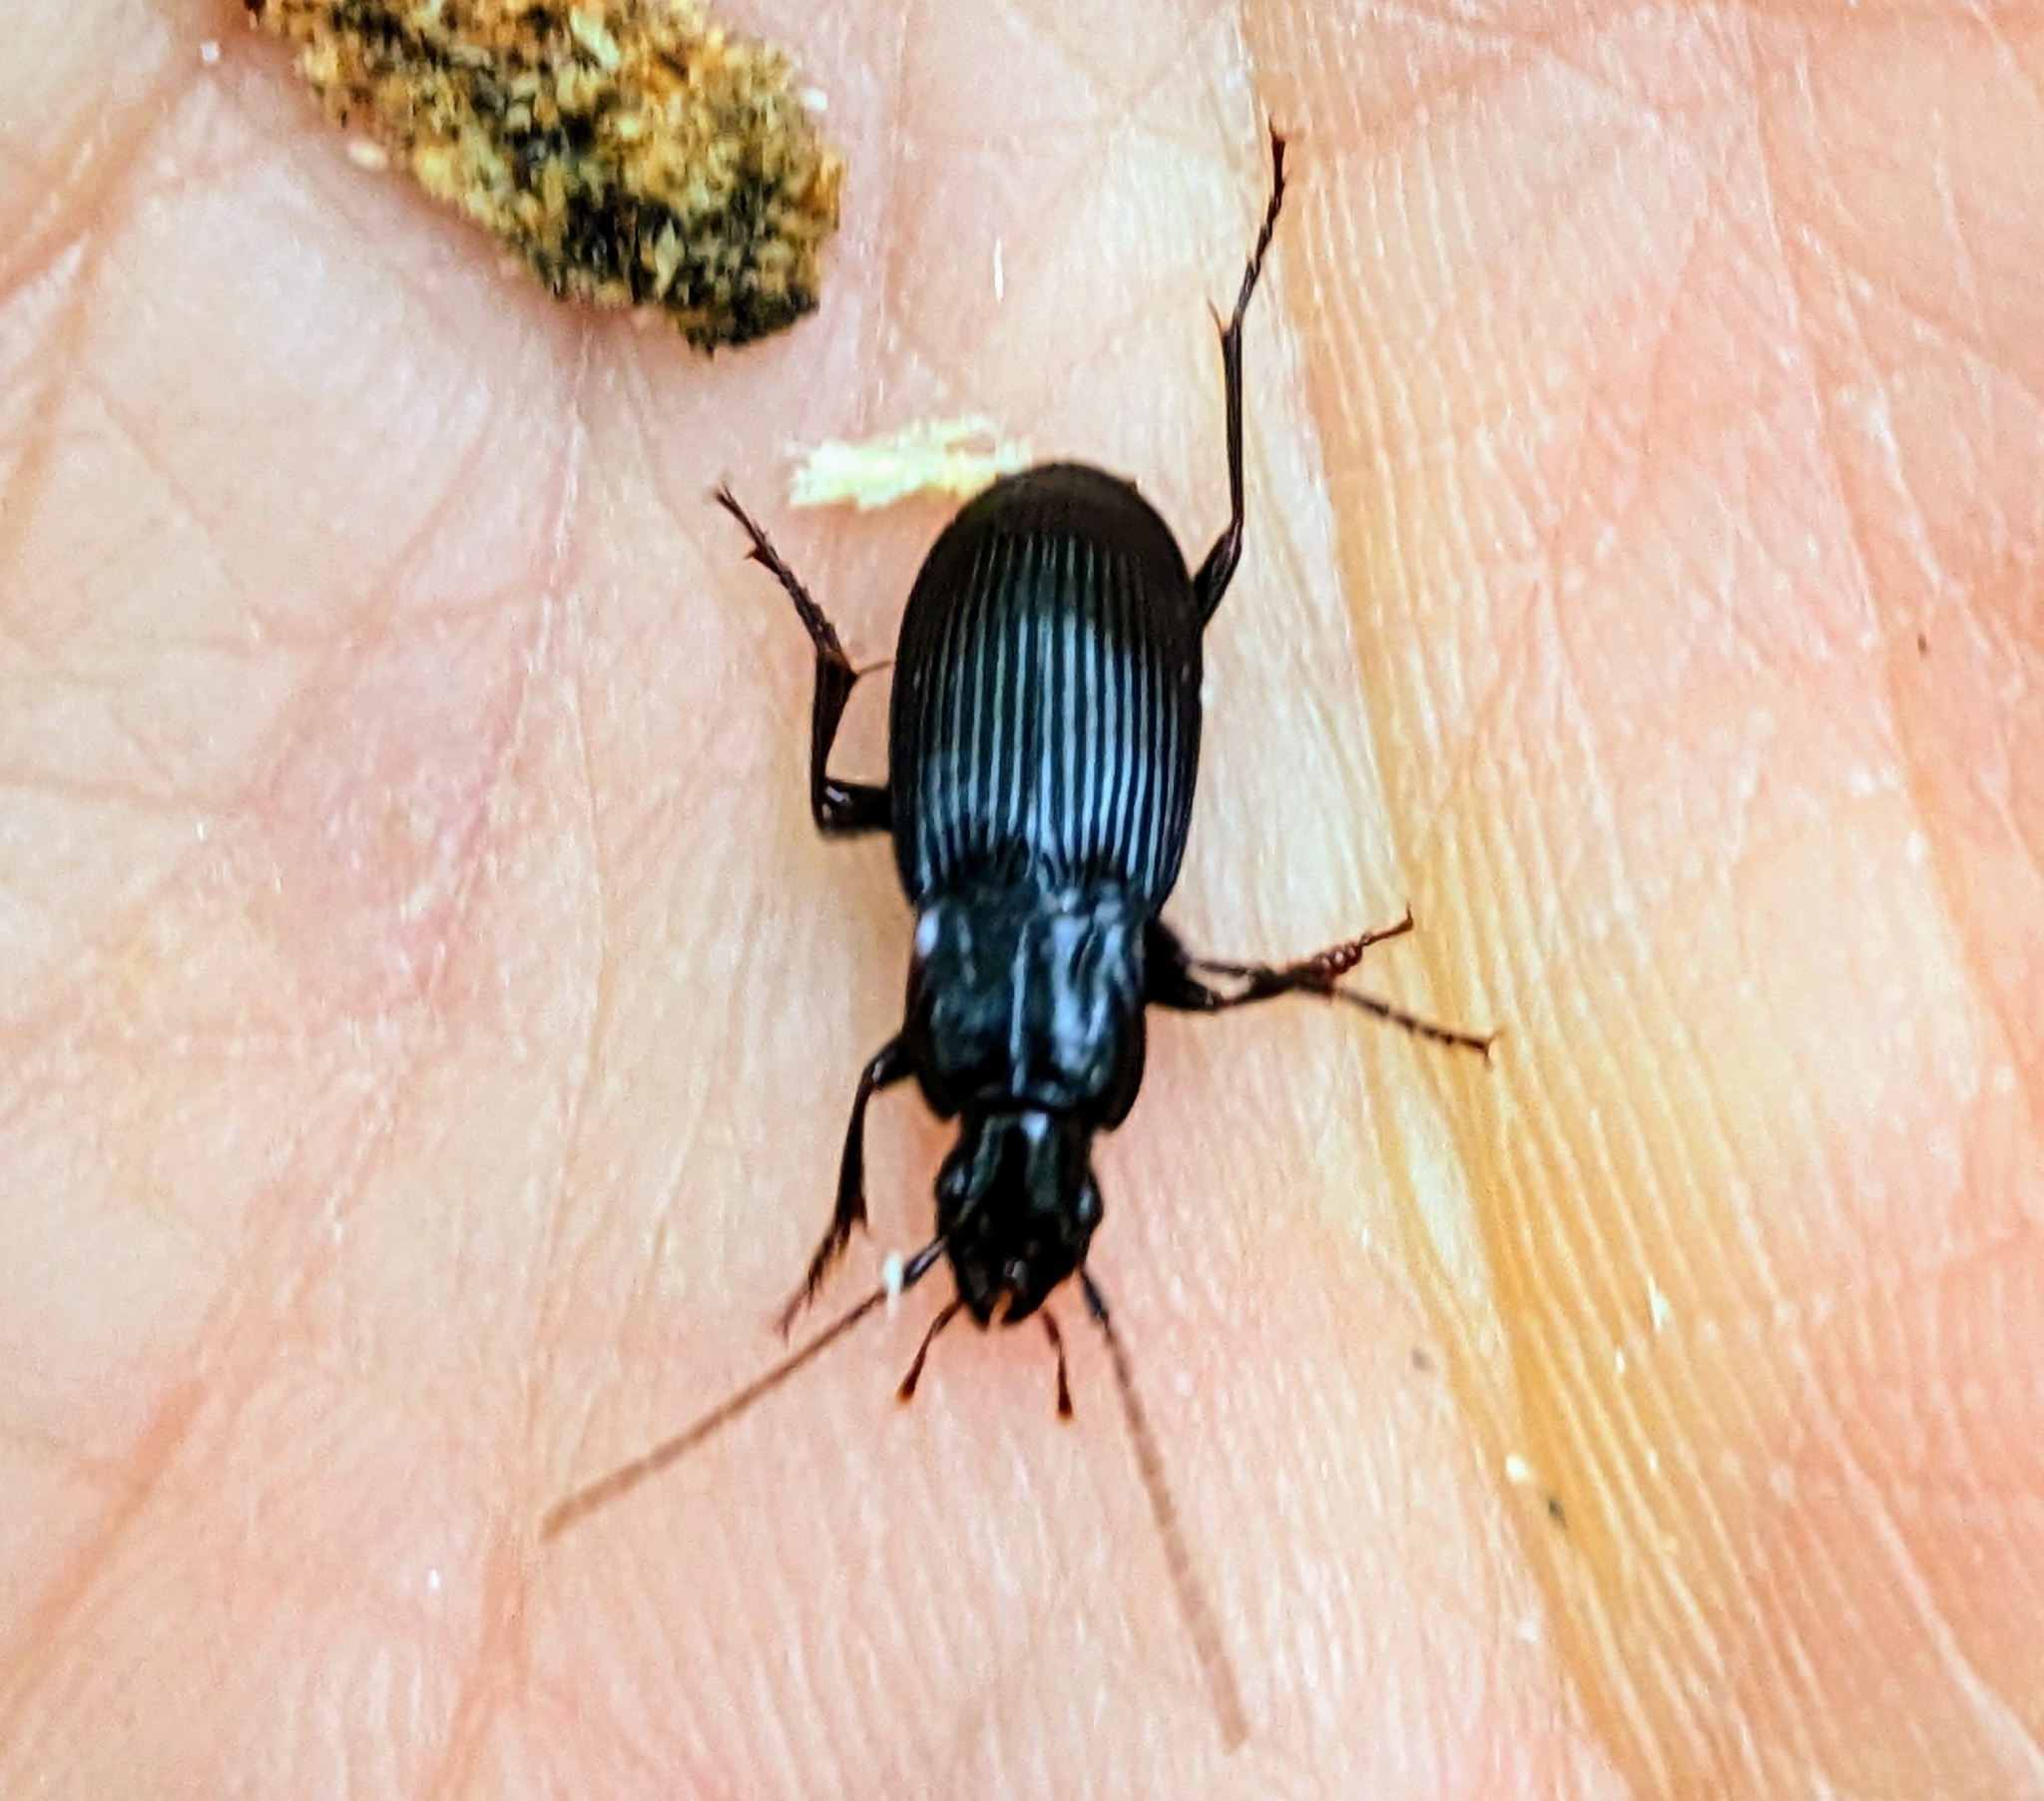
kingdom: Animalia
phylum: Arthropoda
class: Insecta
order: Coleoptera
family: Carabidae
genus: Dicaelus
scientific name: Dicaelus politus
